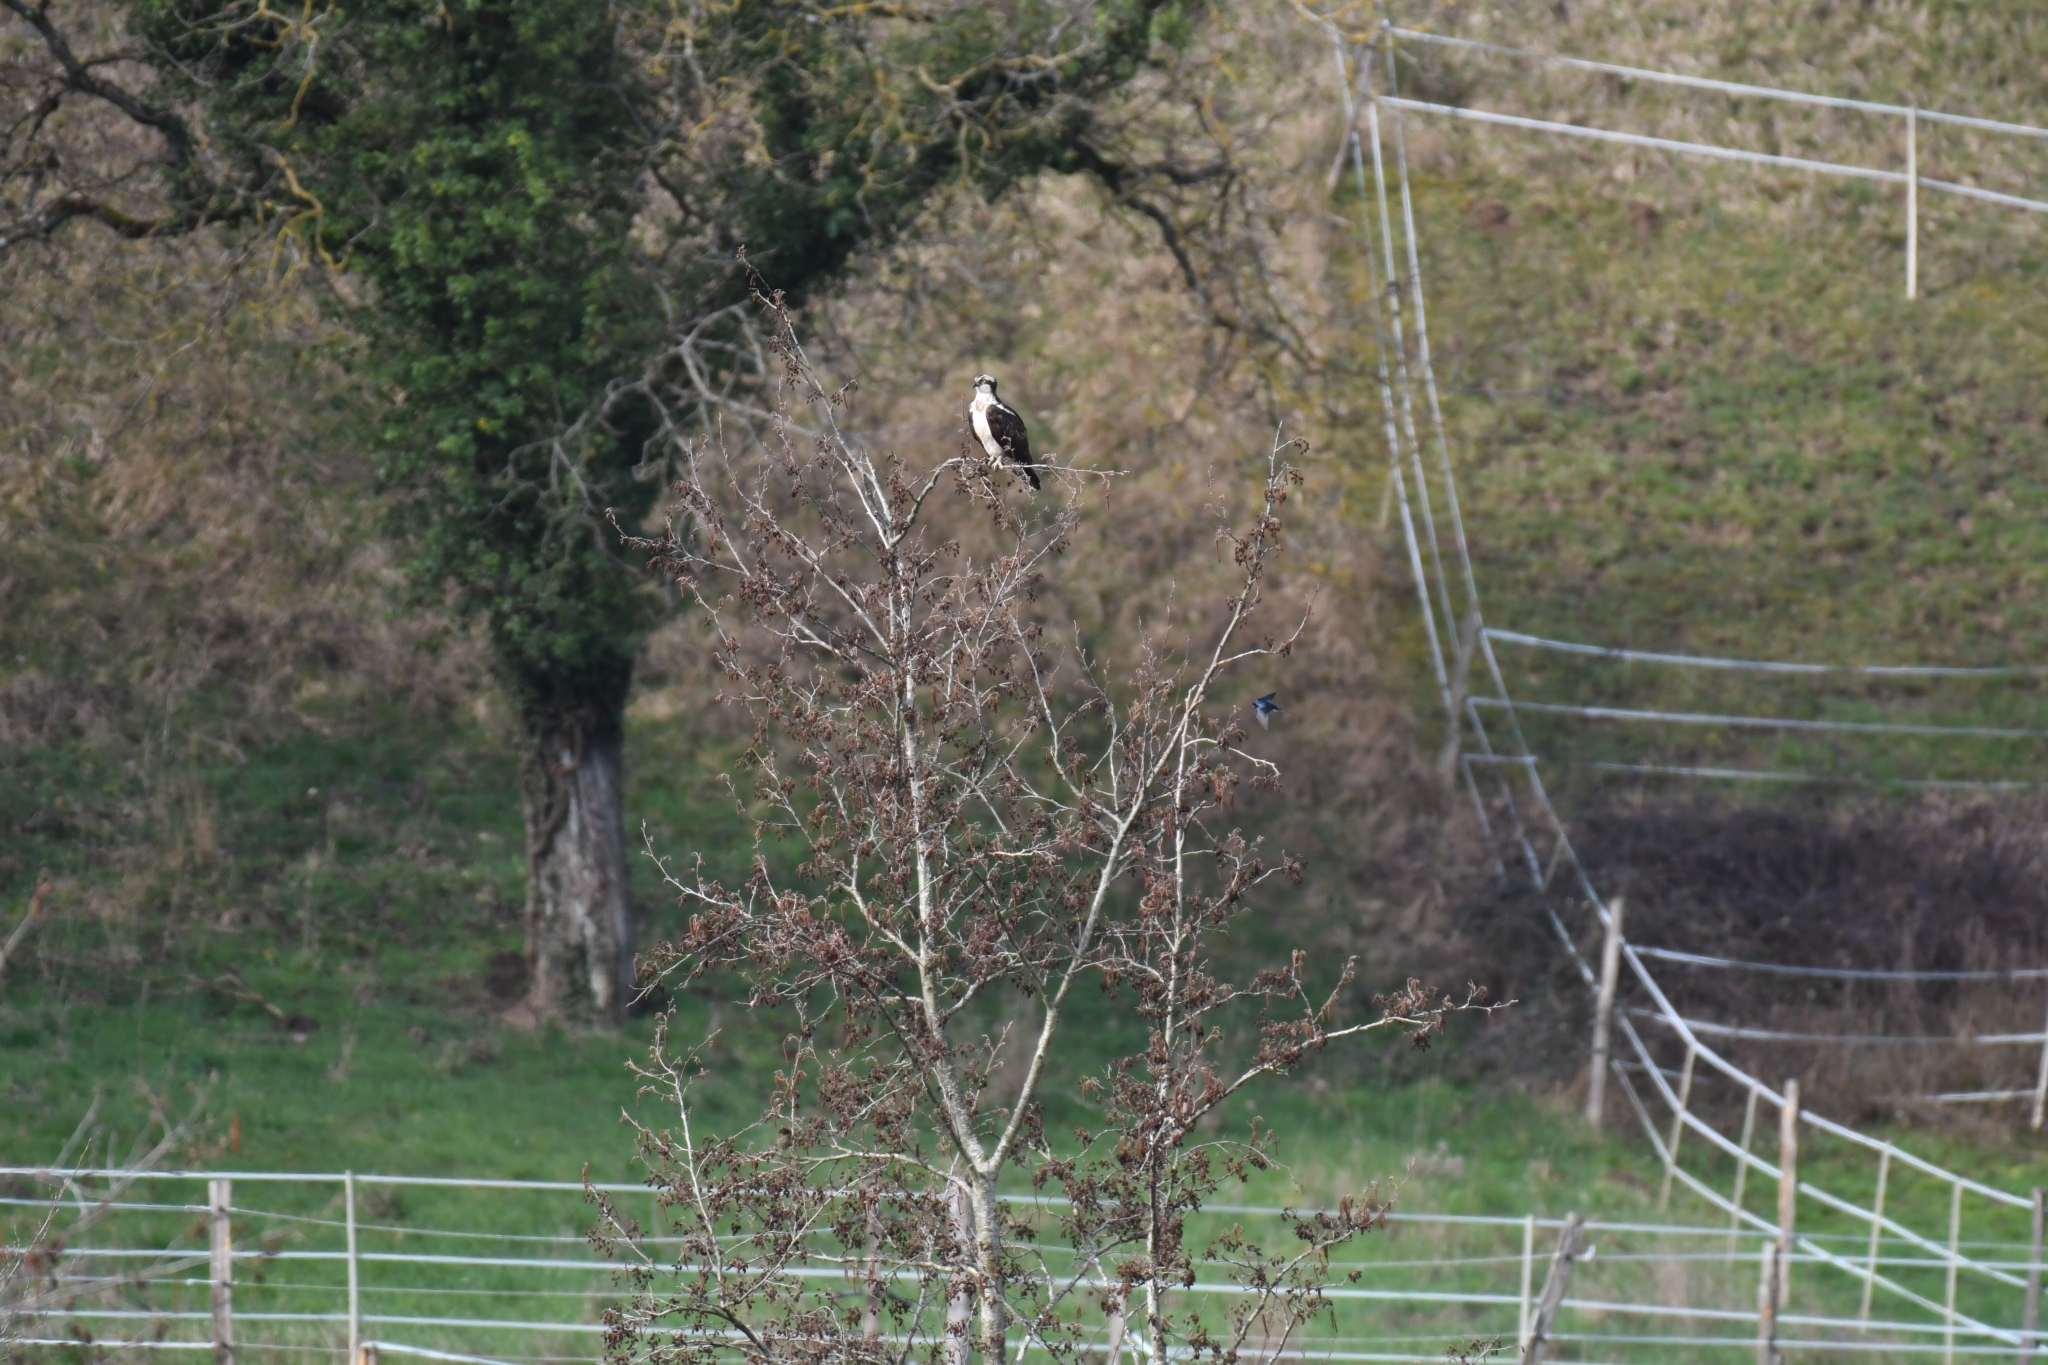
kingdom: Animalia
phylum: Chordata
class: Aves
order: Accipitriformes
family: Pandionidae
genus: Pandion
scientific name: Pandion haliaetus
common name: Osprey
